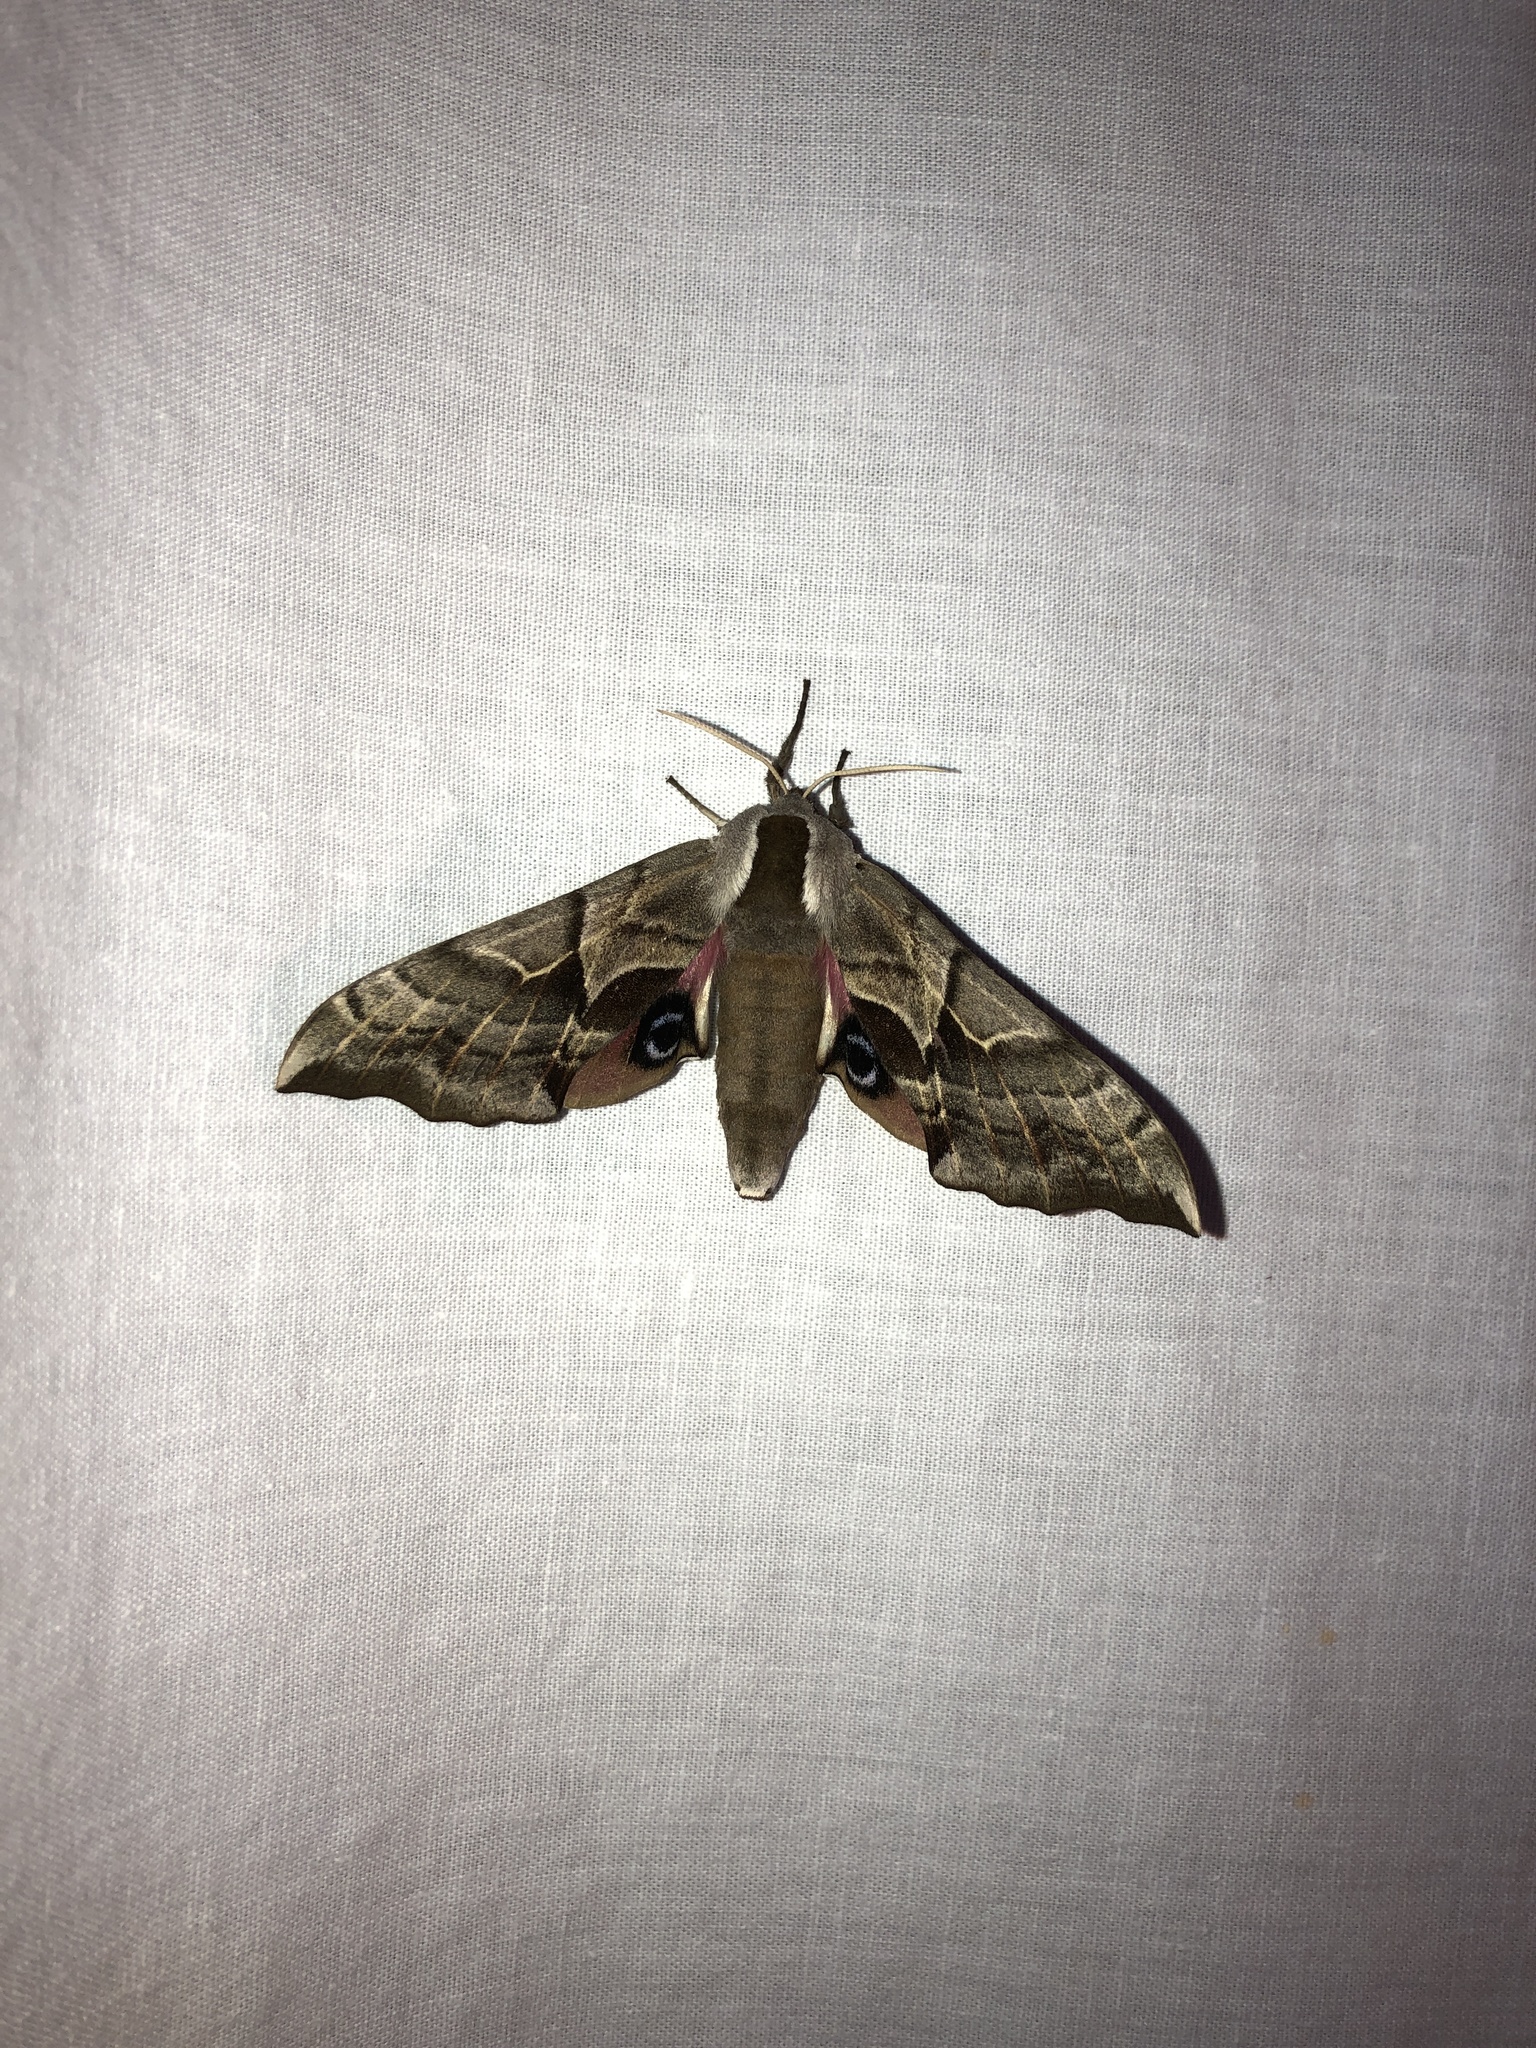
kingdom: Animalia
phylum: Arthropoda
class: Insecta
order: Lepidoptera
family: Sphingidae
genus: Smerinthus
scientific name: Smerinthus cerisyi
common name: Cerisy's sphinx moth
